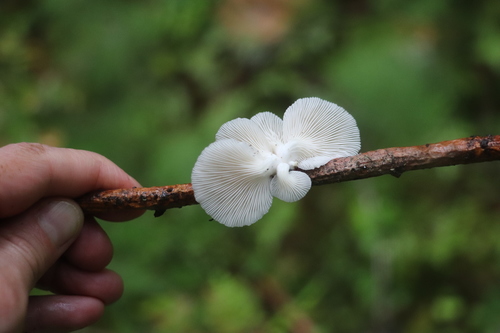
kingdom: Fungi
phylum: Basidiomycota
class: Agaricomycetes
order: Agaricales
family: Pleurotaceae
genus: Pleurotus
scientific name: Pleurotus pulmonarius
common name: Pale oyster
